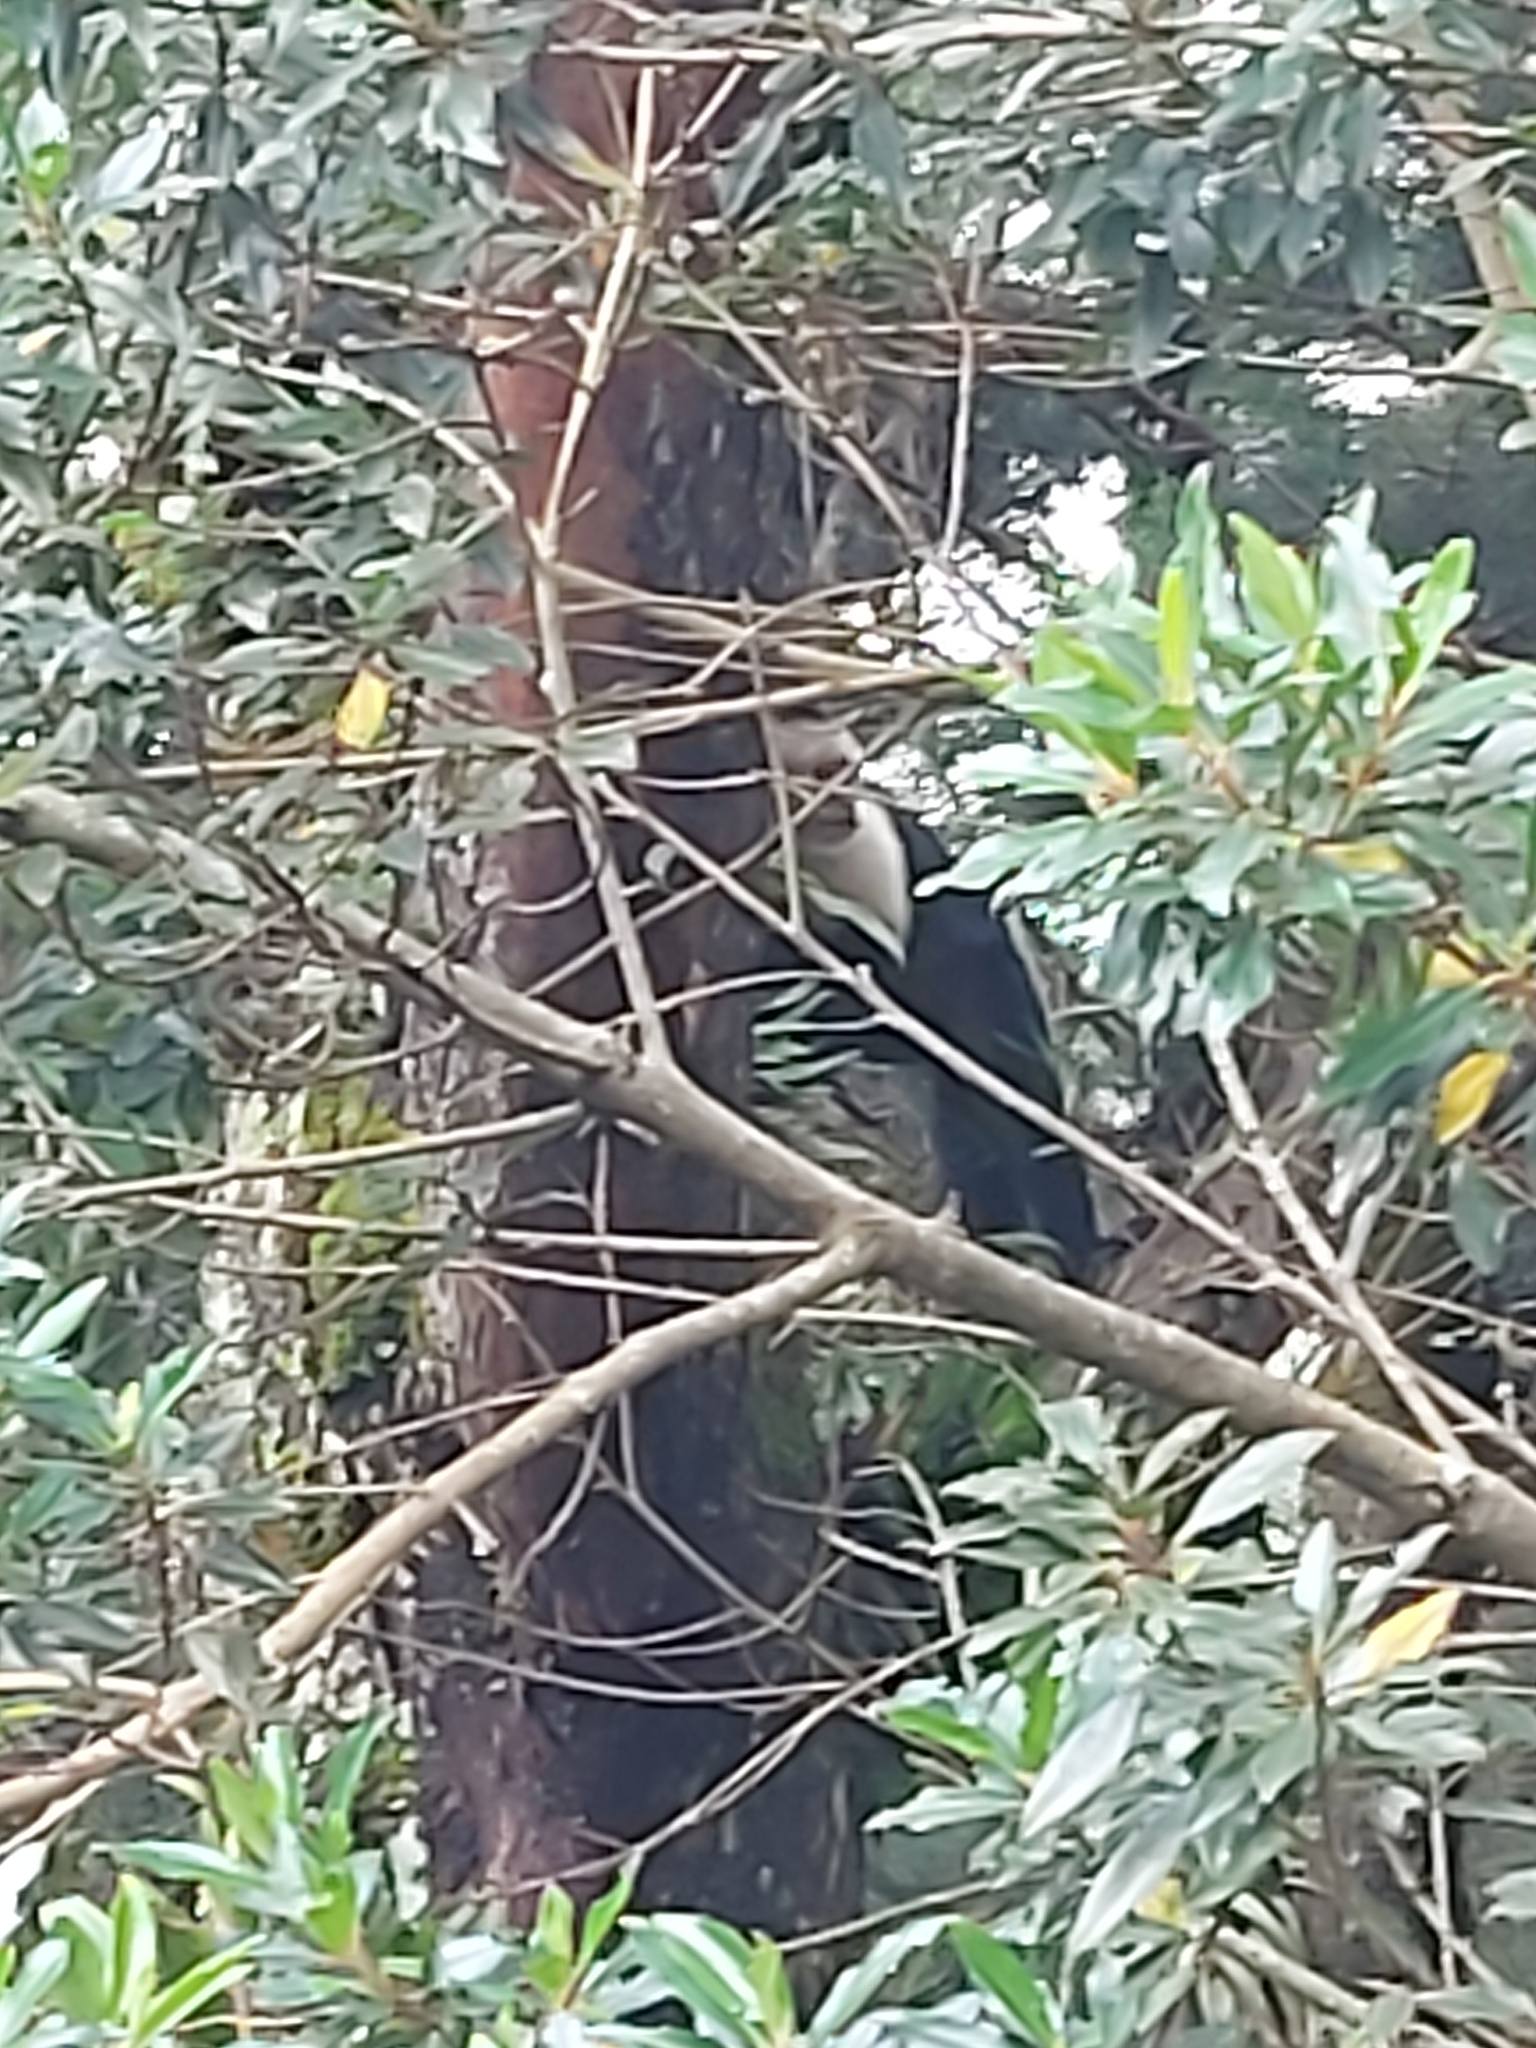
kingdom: Animalia
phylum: Chordata
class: Mammalia
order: Primates
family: Cebidae
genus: Cebus
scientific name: Cebus imitator
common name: Panamanian white-faced capuchin
